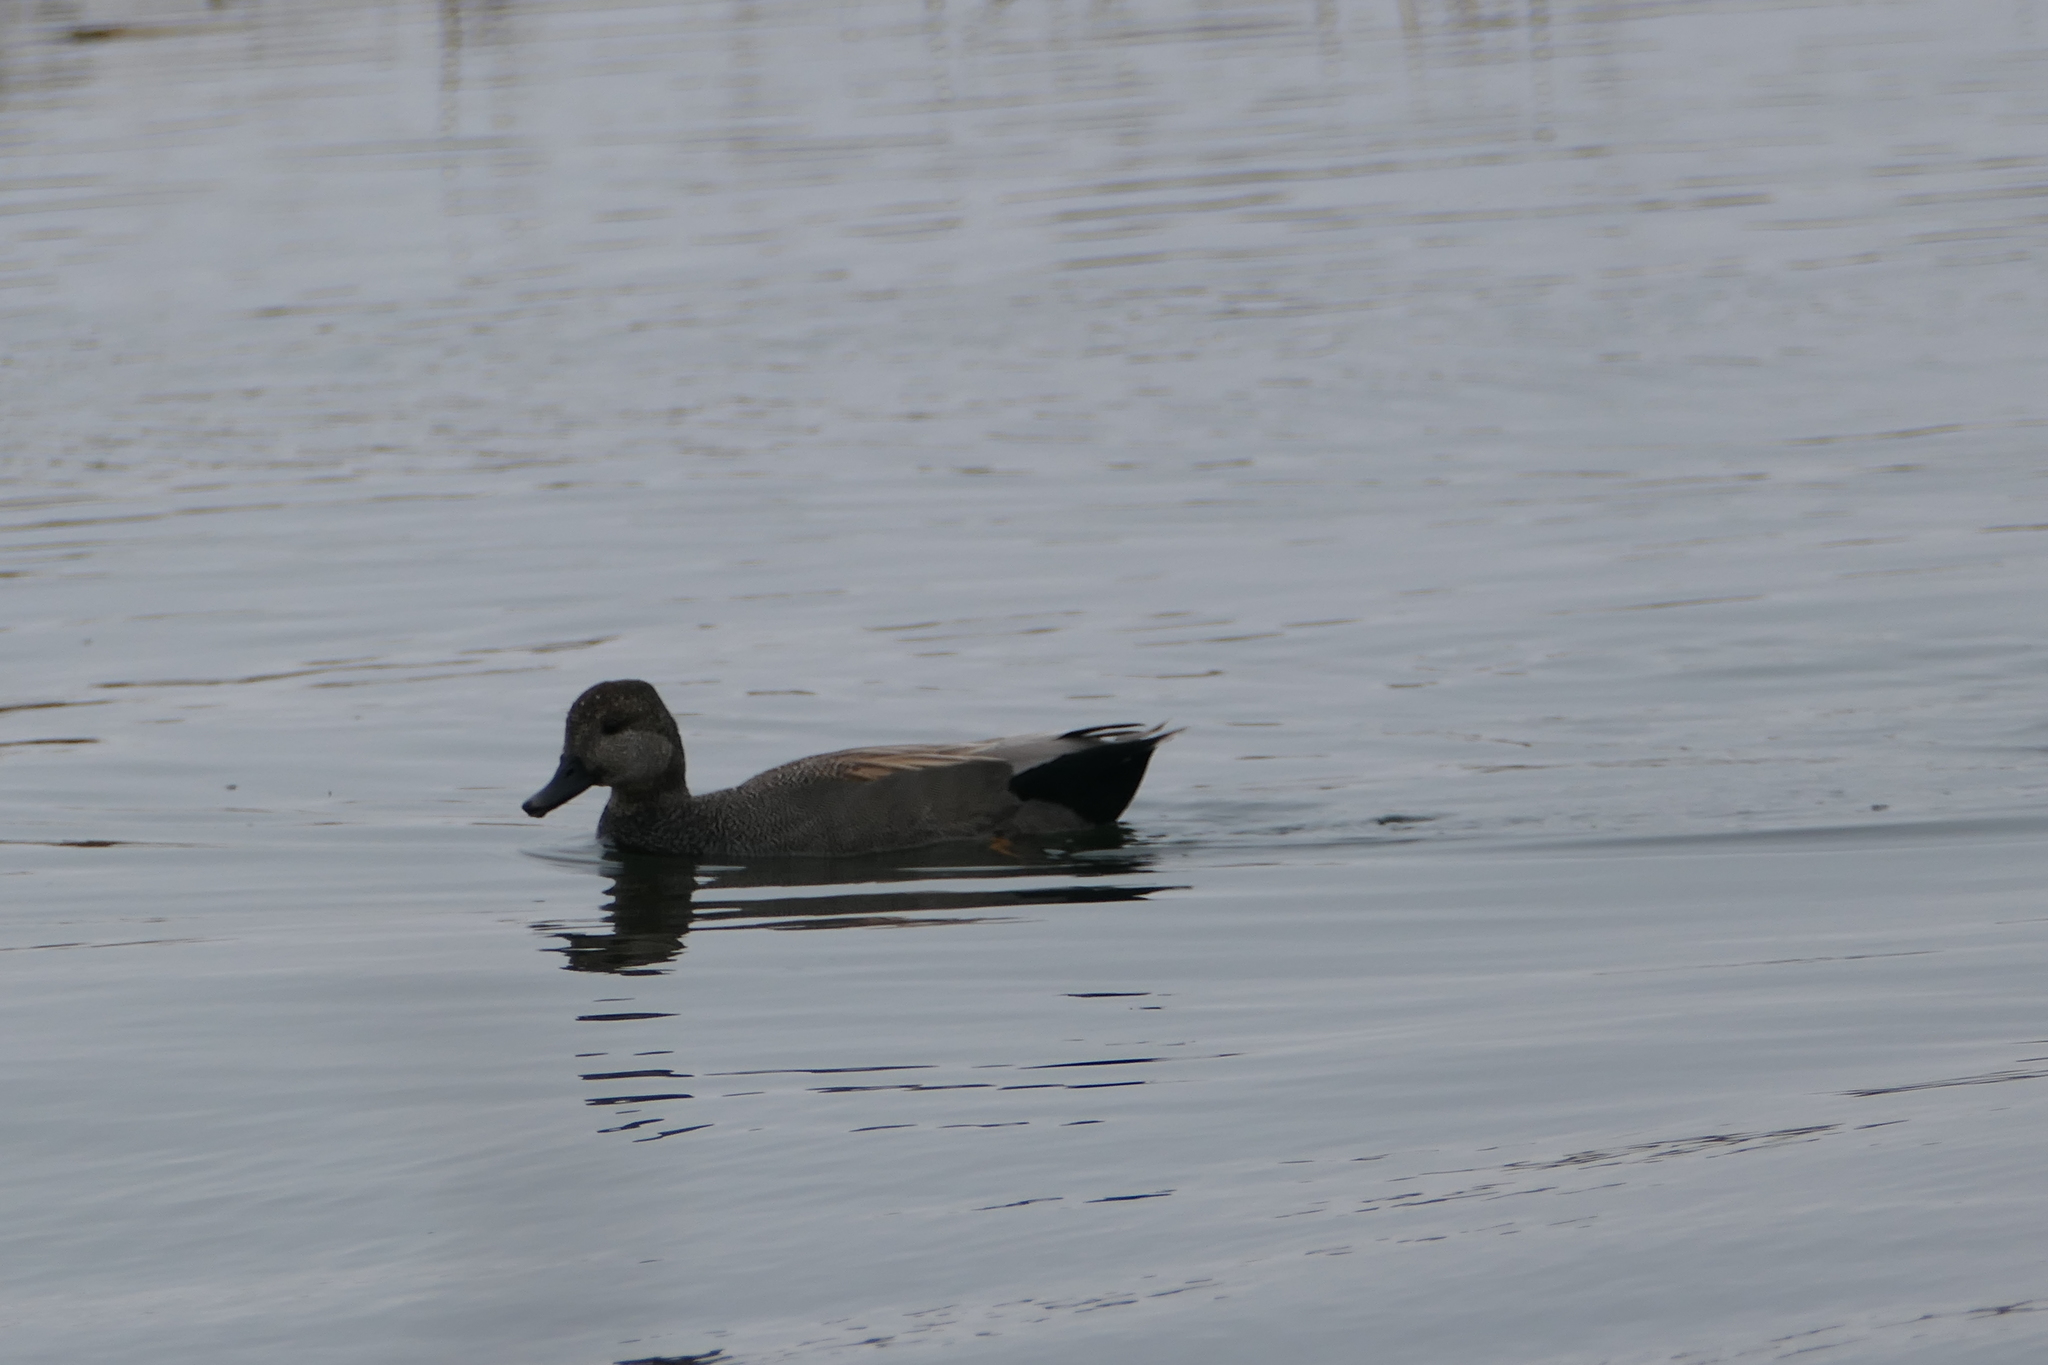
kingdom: Animalia
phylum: Chordata
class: Aves
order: Anseriformes
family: Anatidae
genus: Mareca
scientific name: Mareca strepera
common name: Gadwall
